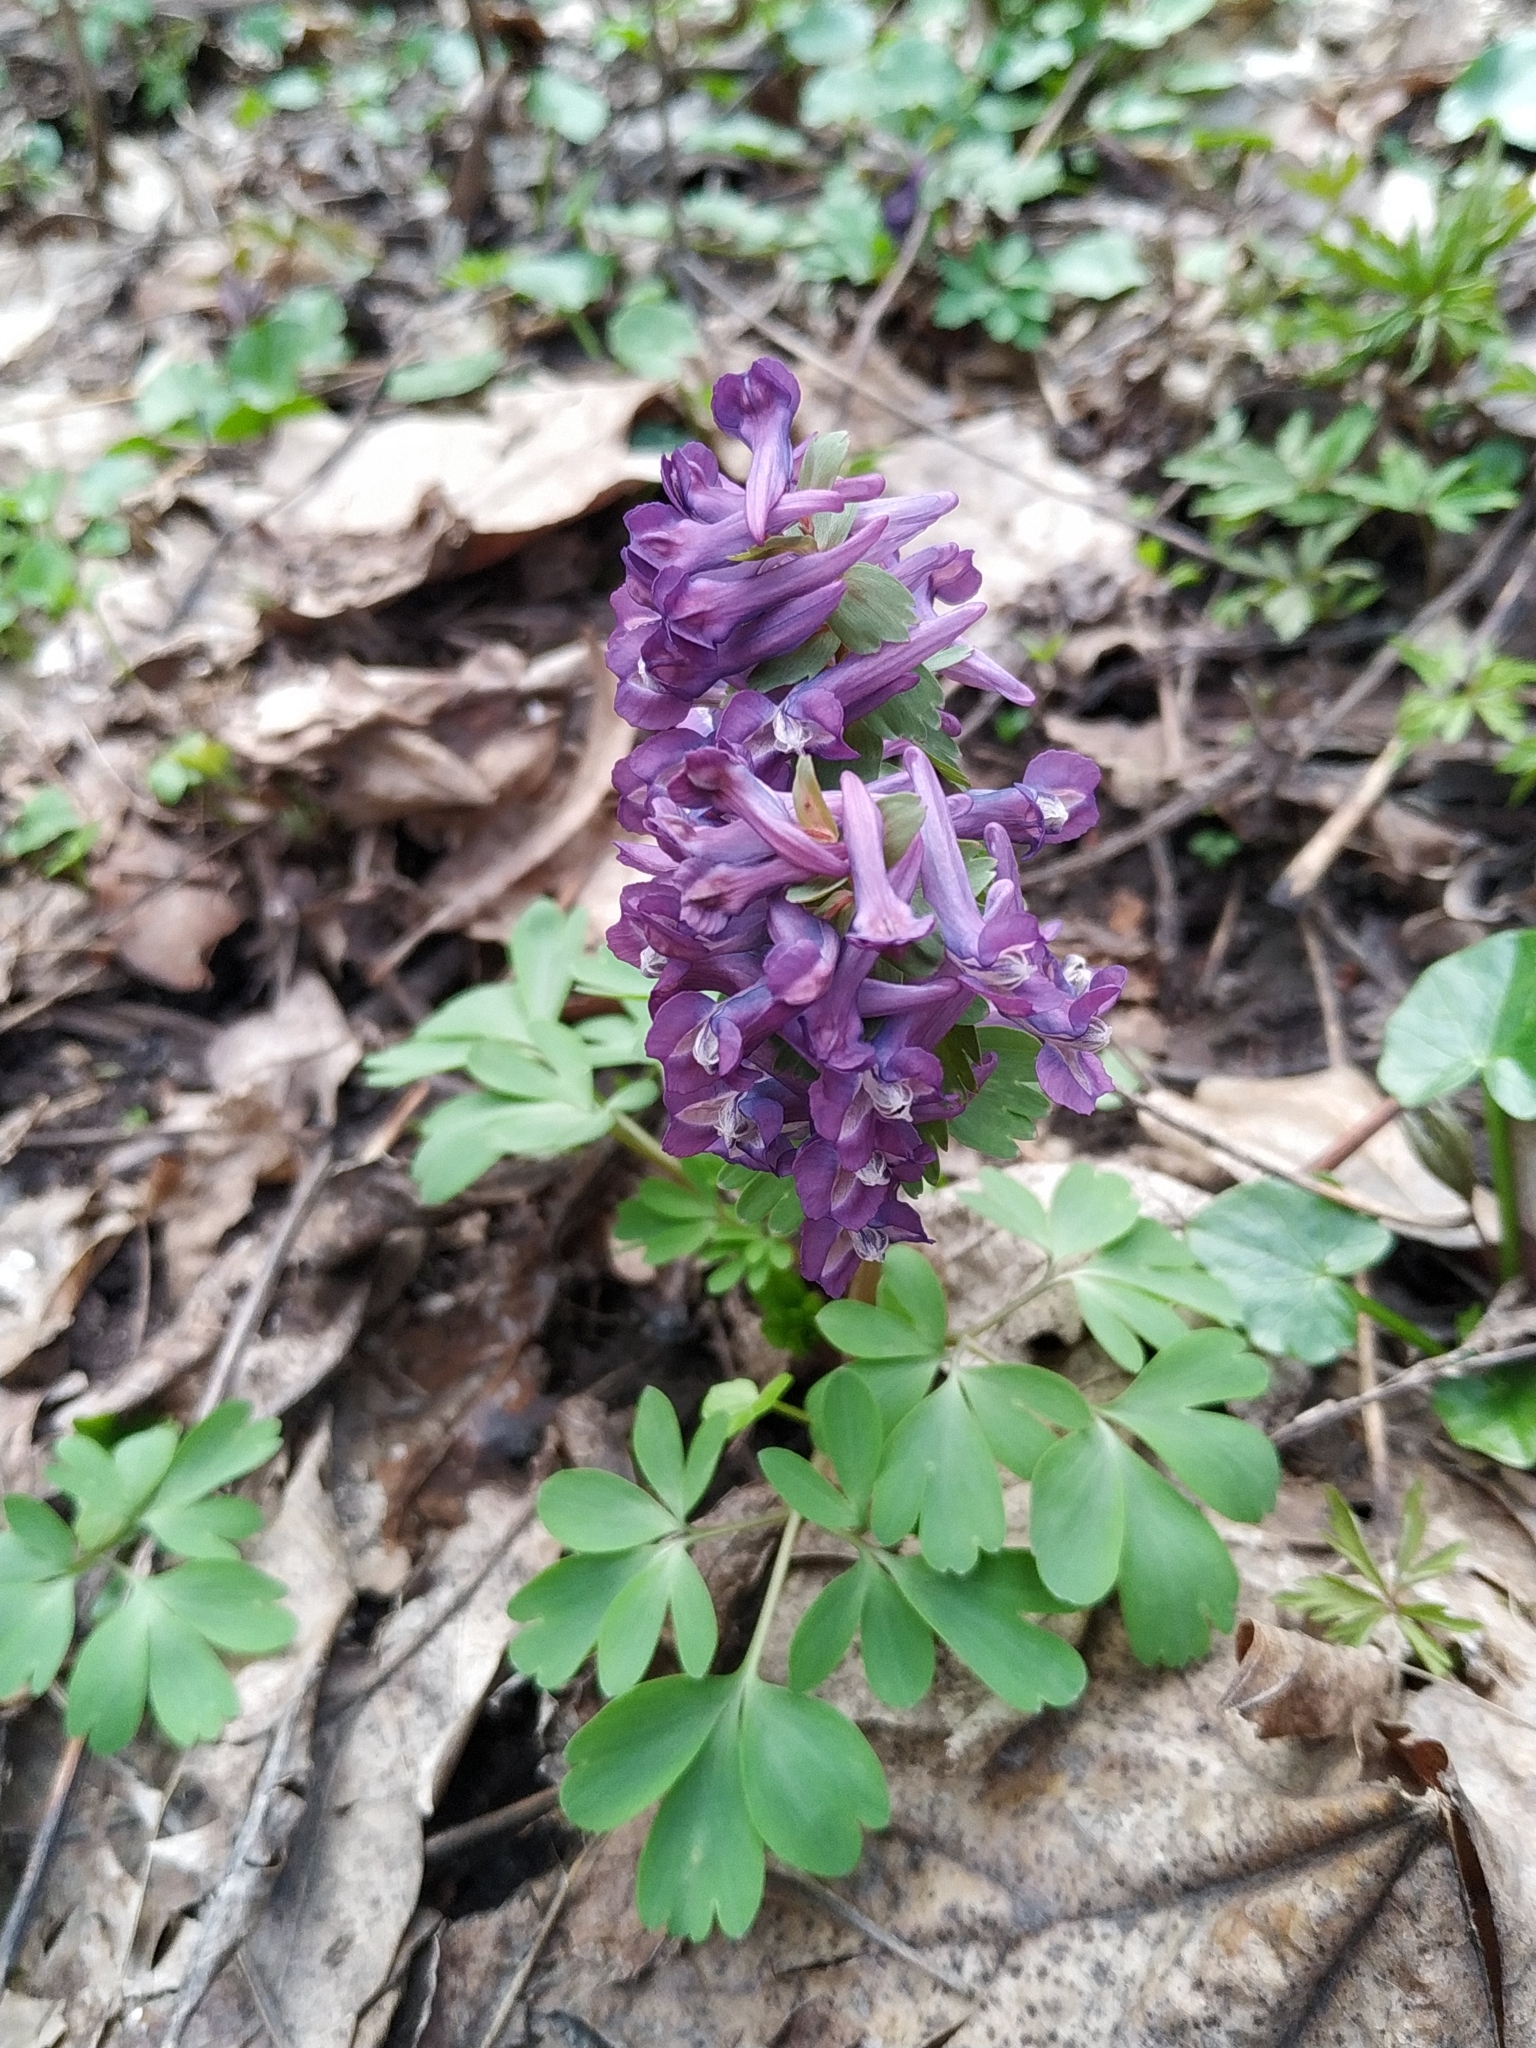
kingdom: Plantae
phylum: Tracheophyta
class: Magnoliopsida
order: Ranunculales
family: Papaveraceae
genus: Corydalis
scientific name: Corydalis solida
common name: Bird-in-a-bush
